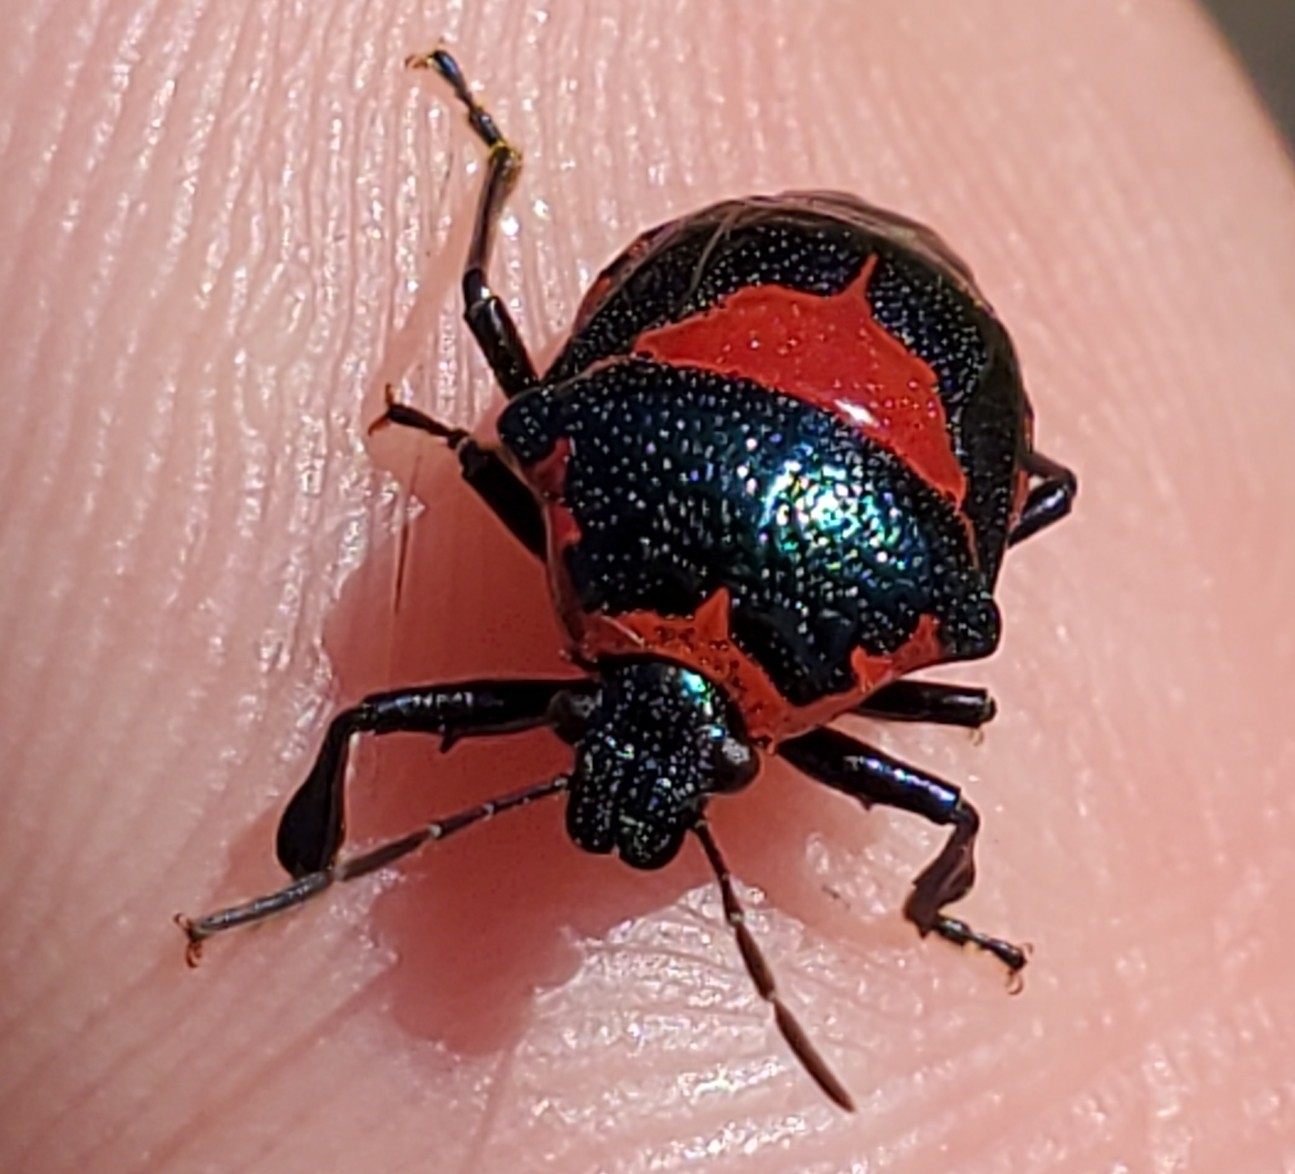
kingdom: Animalia
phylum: Arthropoda
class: Insecta
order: Hemiptera
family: Pentatomidae
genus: Stiretrus
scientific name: Stiretrus anchorago
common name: Anchor stink bug
